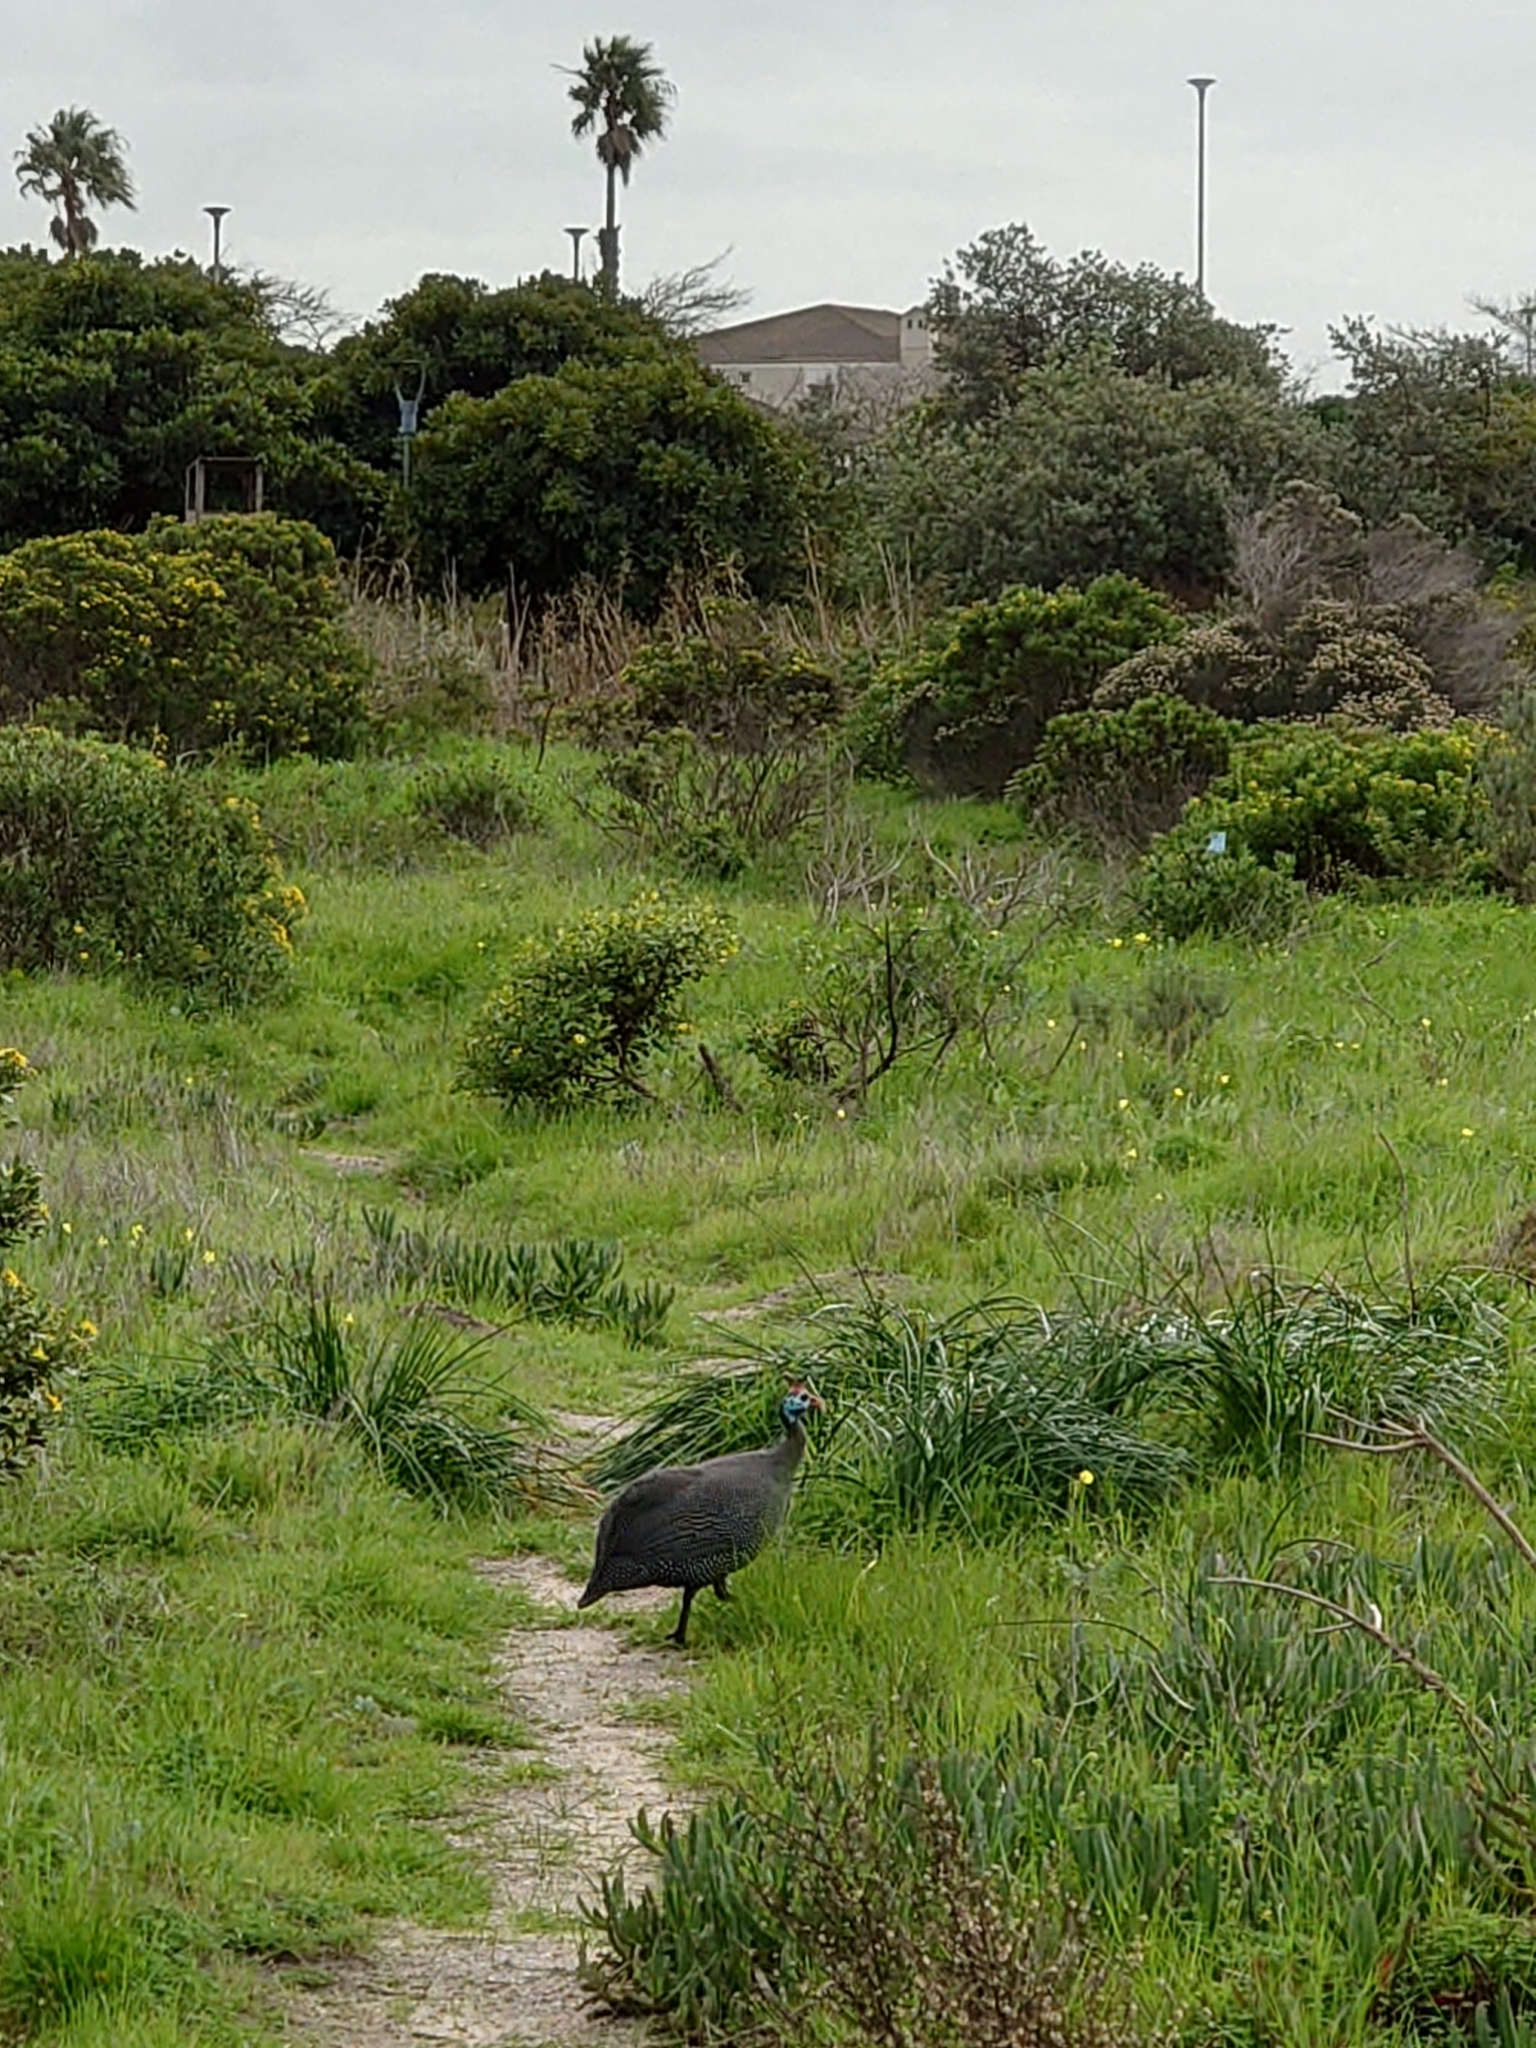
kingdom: Animalia
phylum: Chordata
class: Aves
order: Galliformes
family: Numididae
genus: Numida
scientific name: Numida meleagris
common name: Helmeted guineafowl
